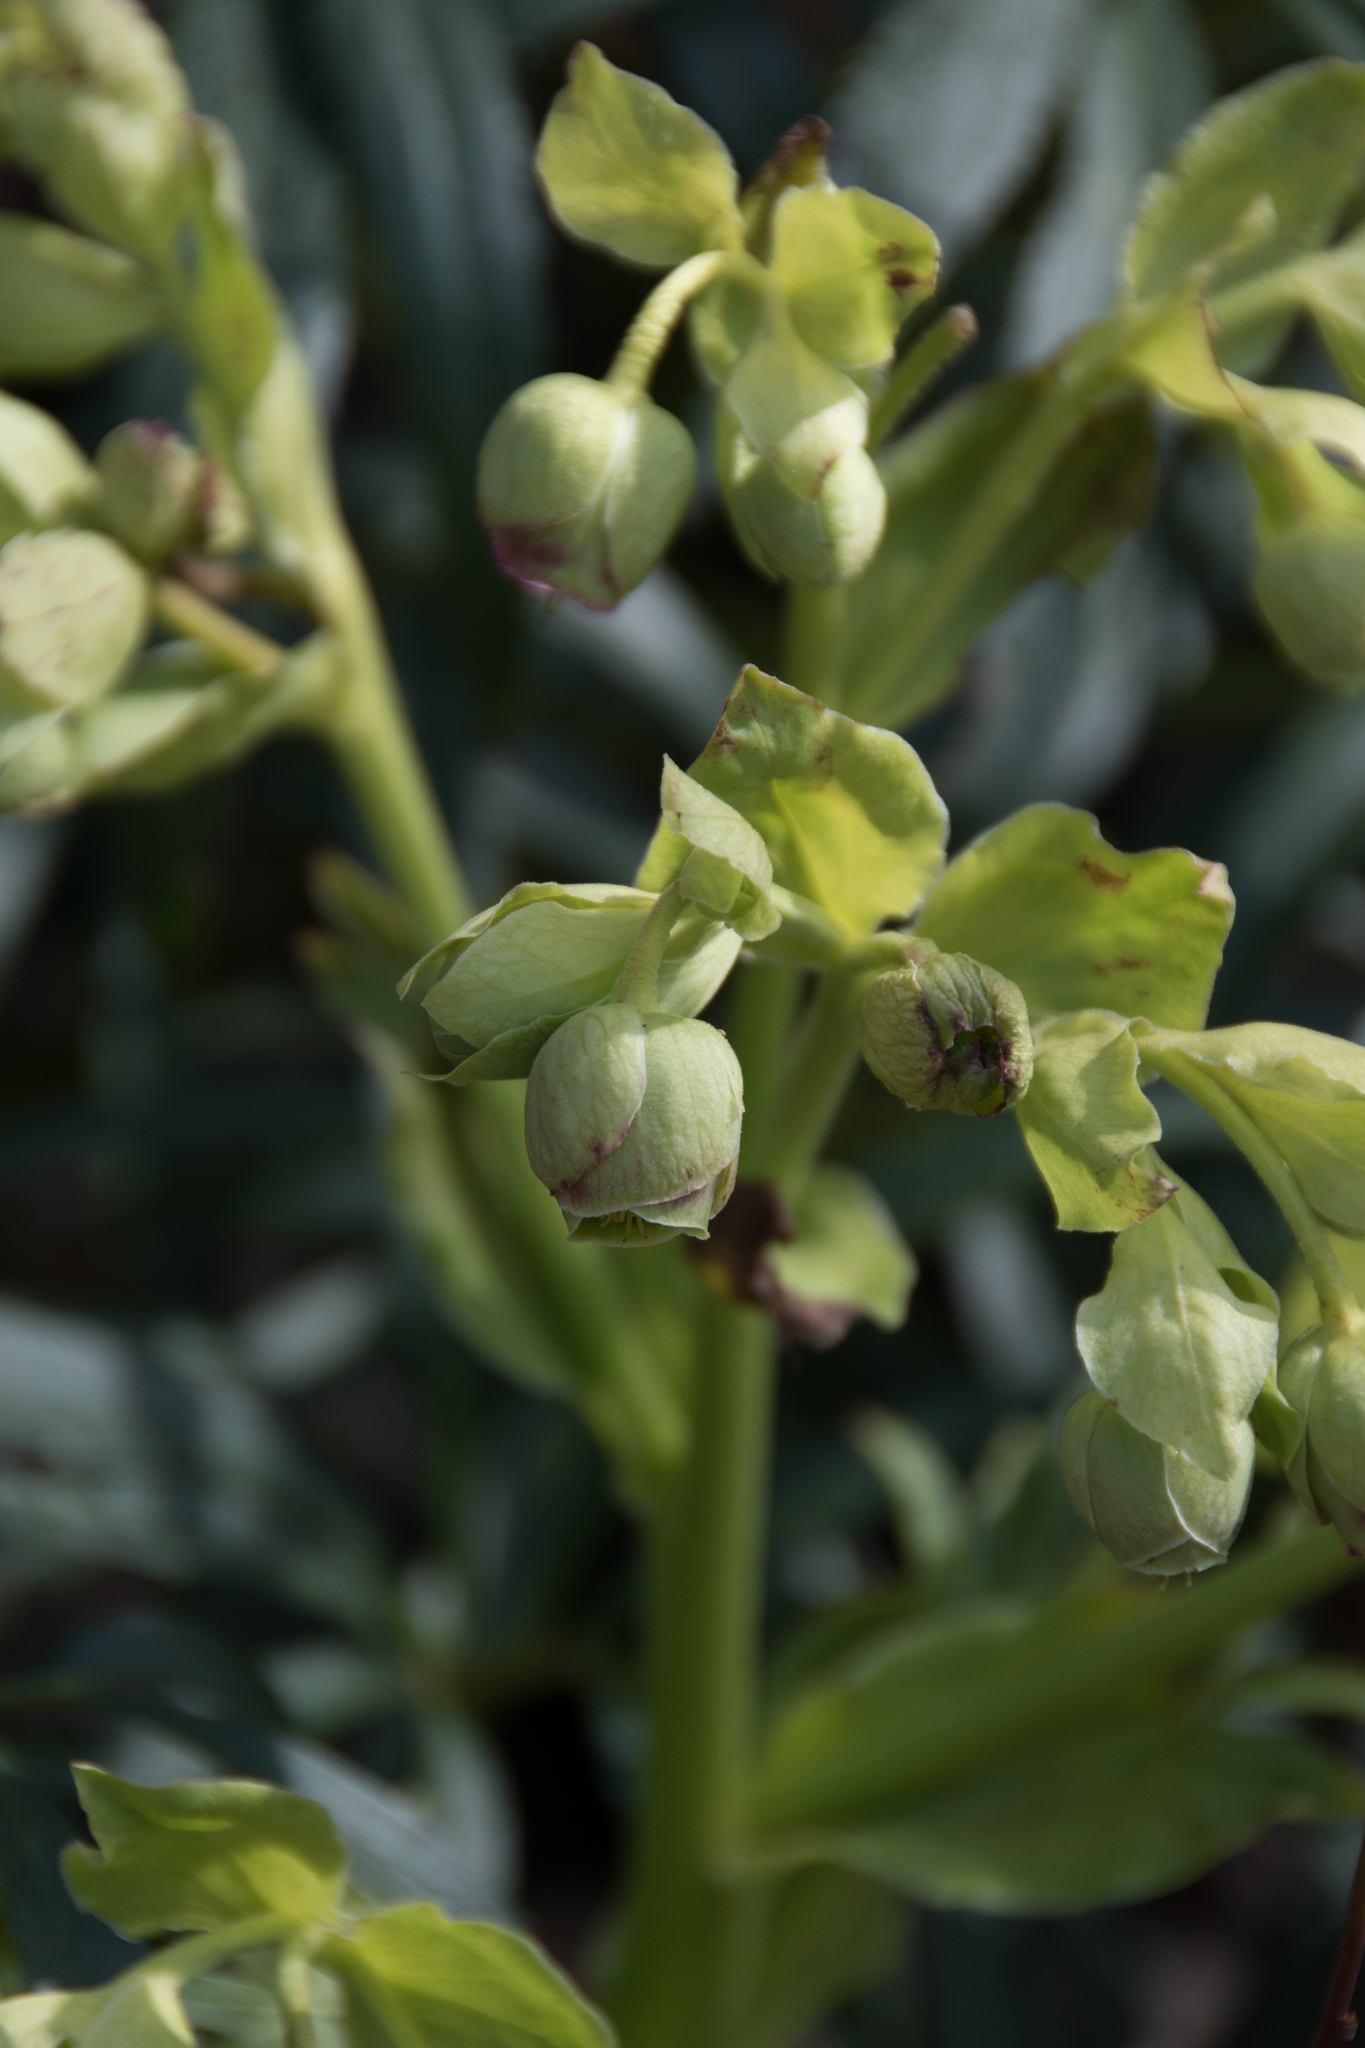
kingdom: Plantae
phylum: Tracheophyta
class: Magnoliopsida
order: Ranunculales
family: Ranunculaceae
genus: Helleborus
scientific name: Helleborus foetidus
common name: Stinking hellebore
